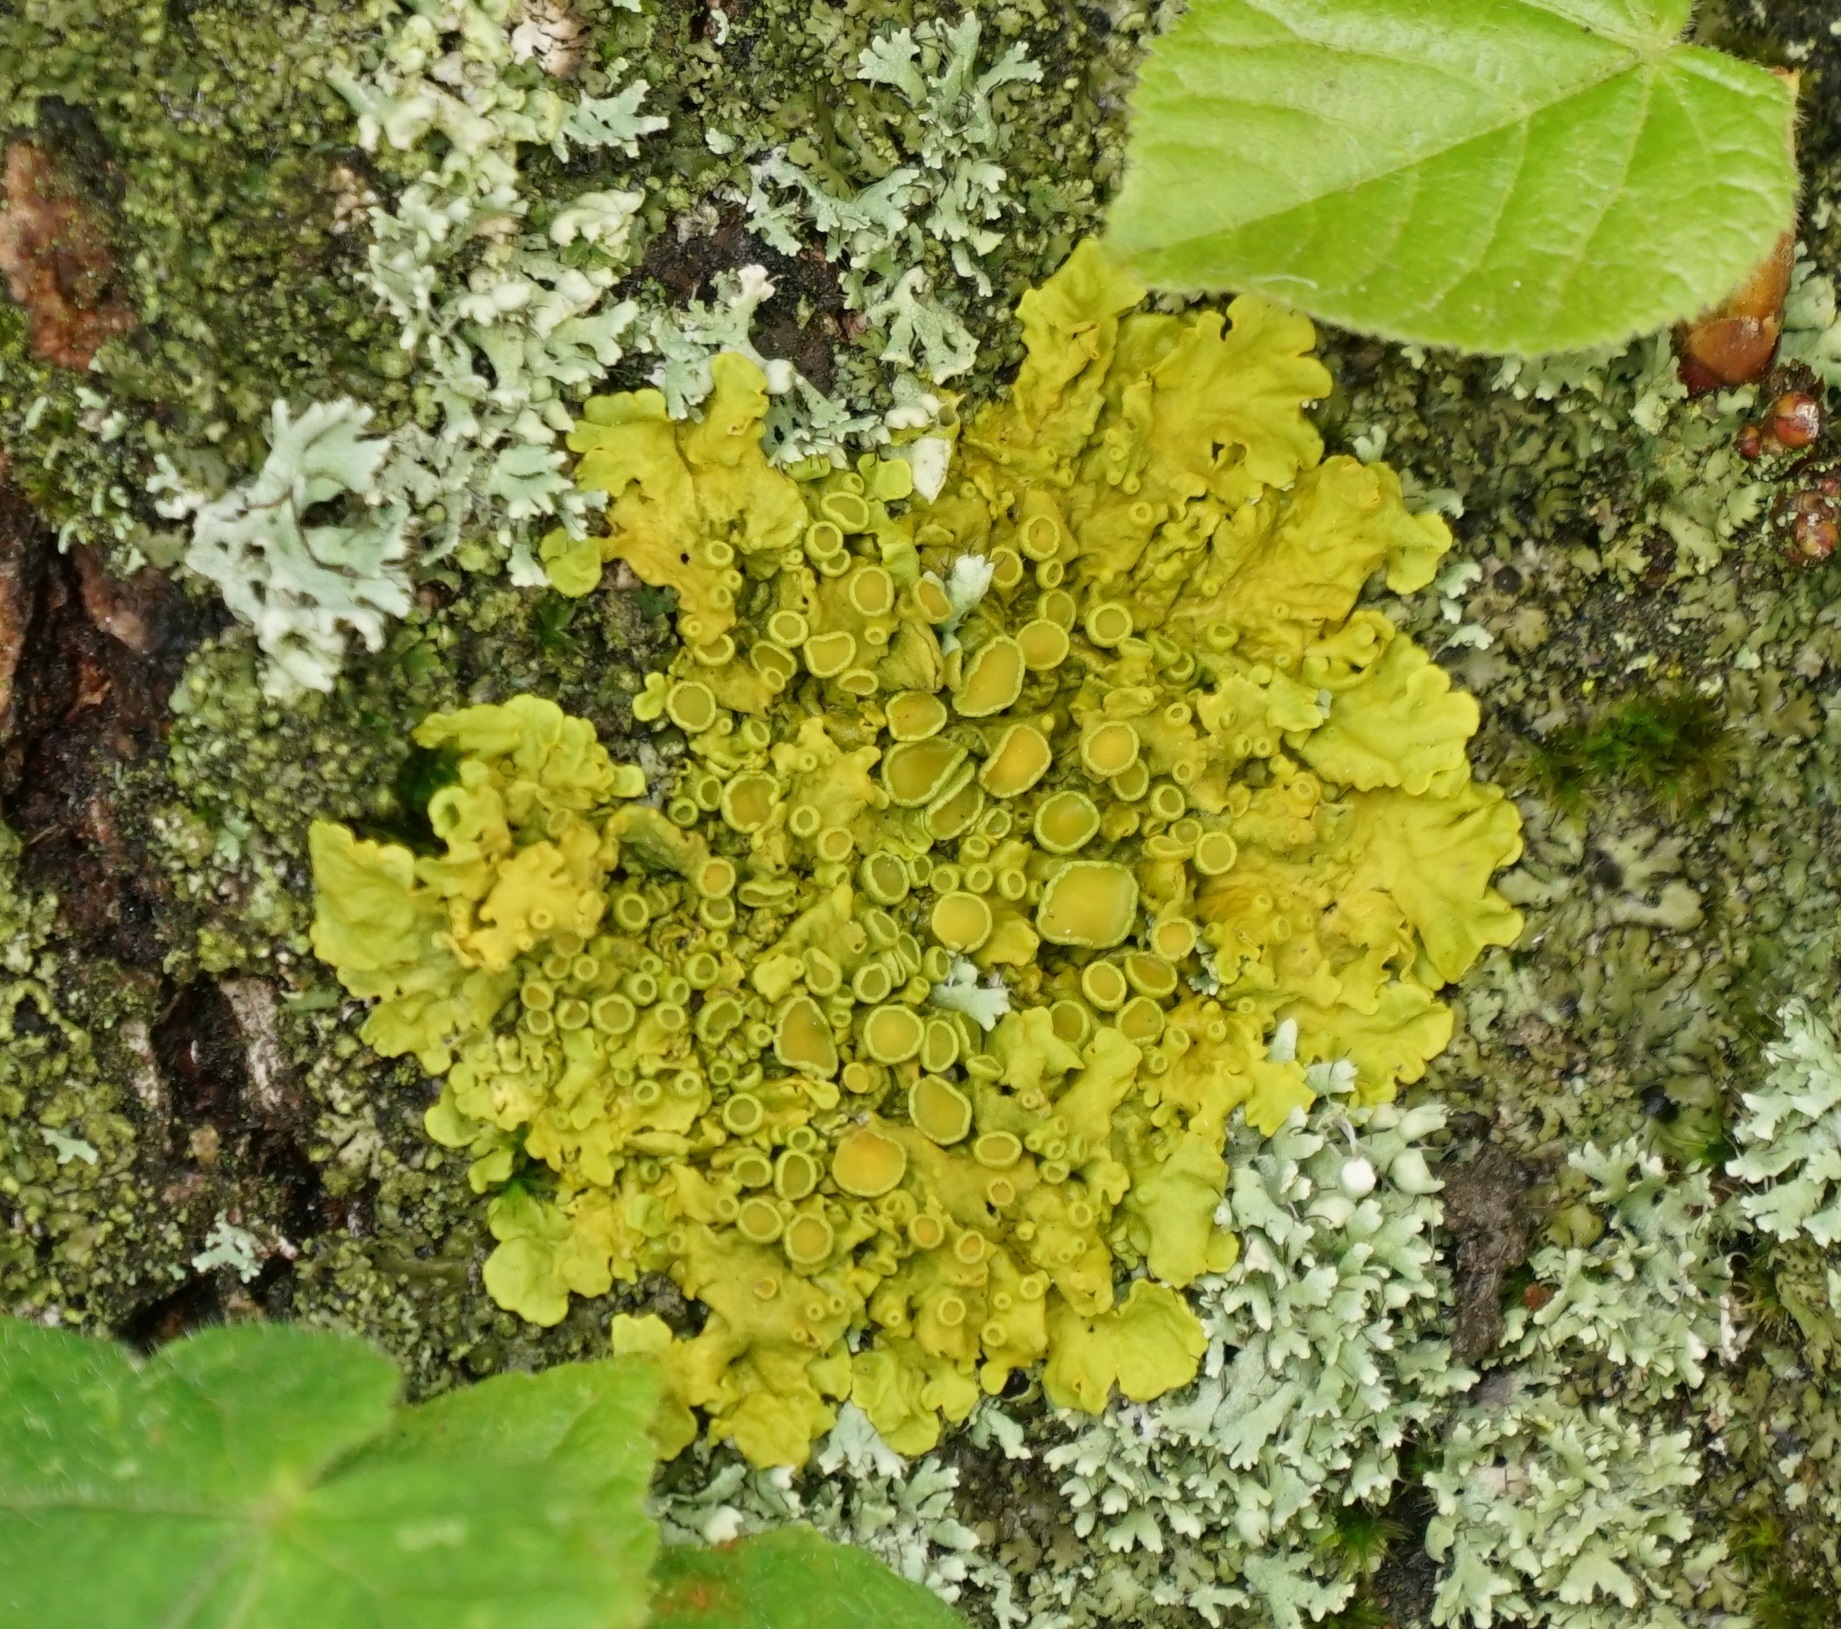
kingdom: Fungi
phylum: Ascomycota
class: Lecanoromycetes
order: Teloschistales
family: Teloschistaceae
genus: Xanthoria
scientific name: Xanthoria parietina
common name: Common orange lichen
